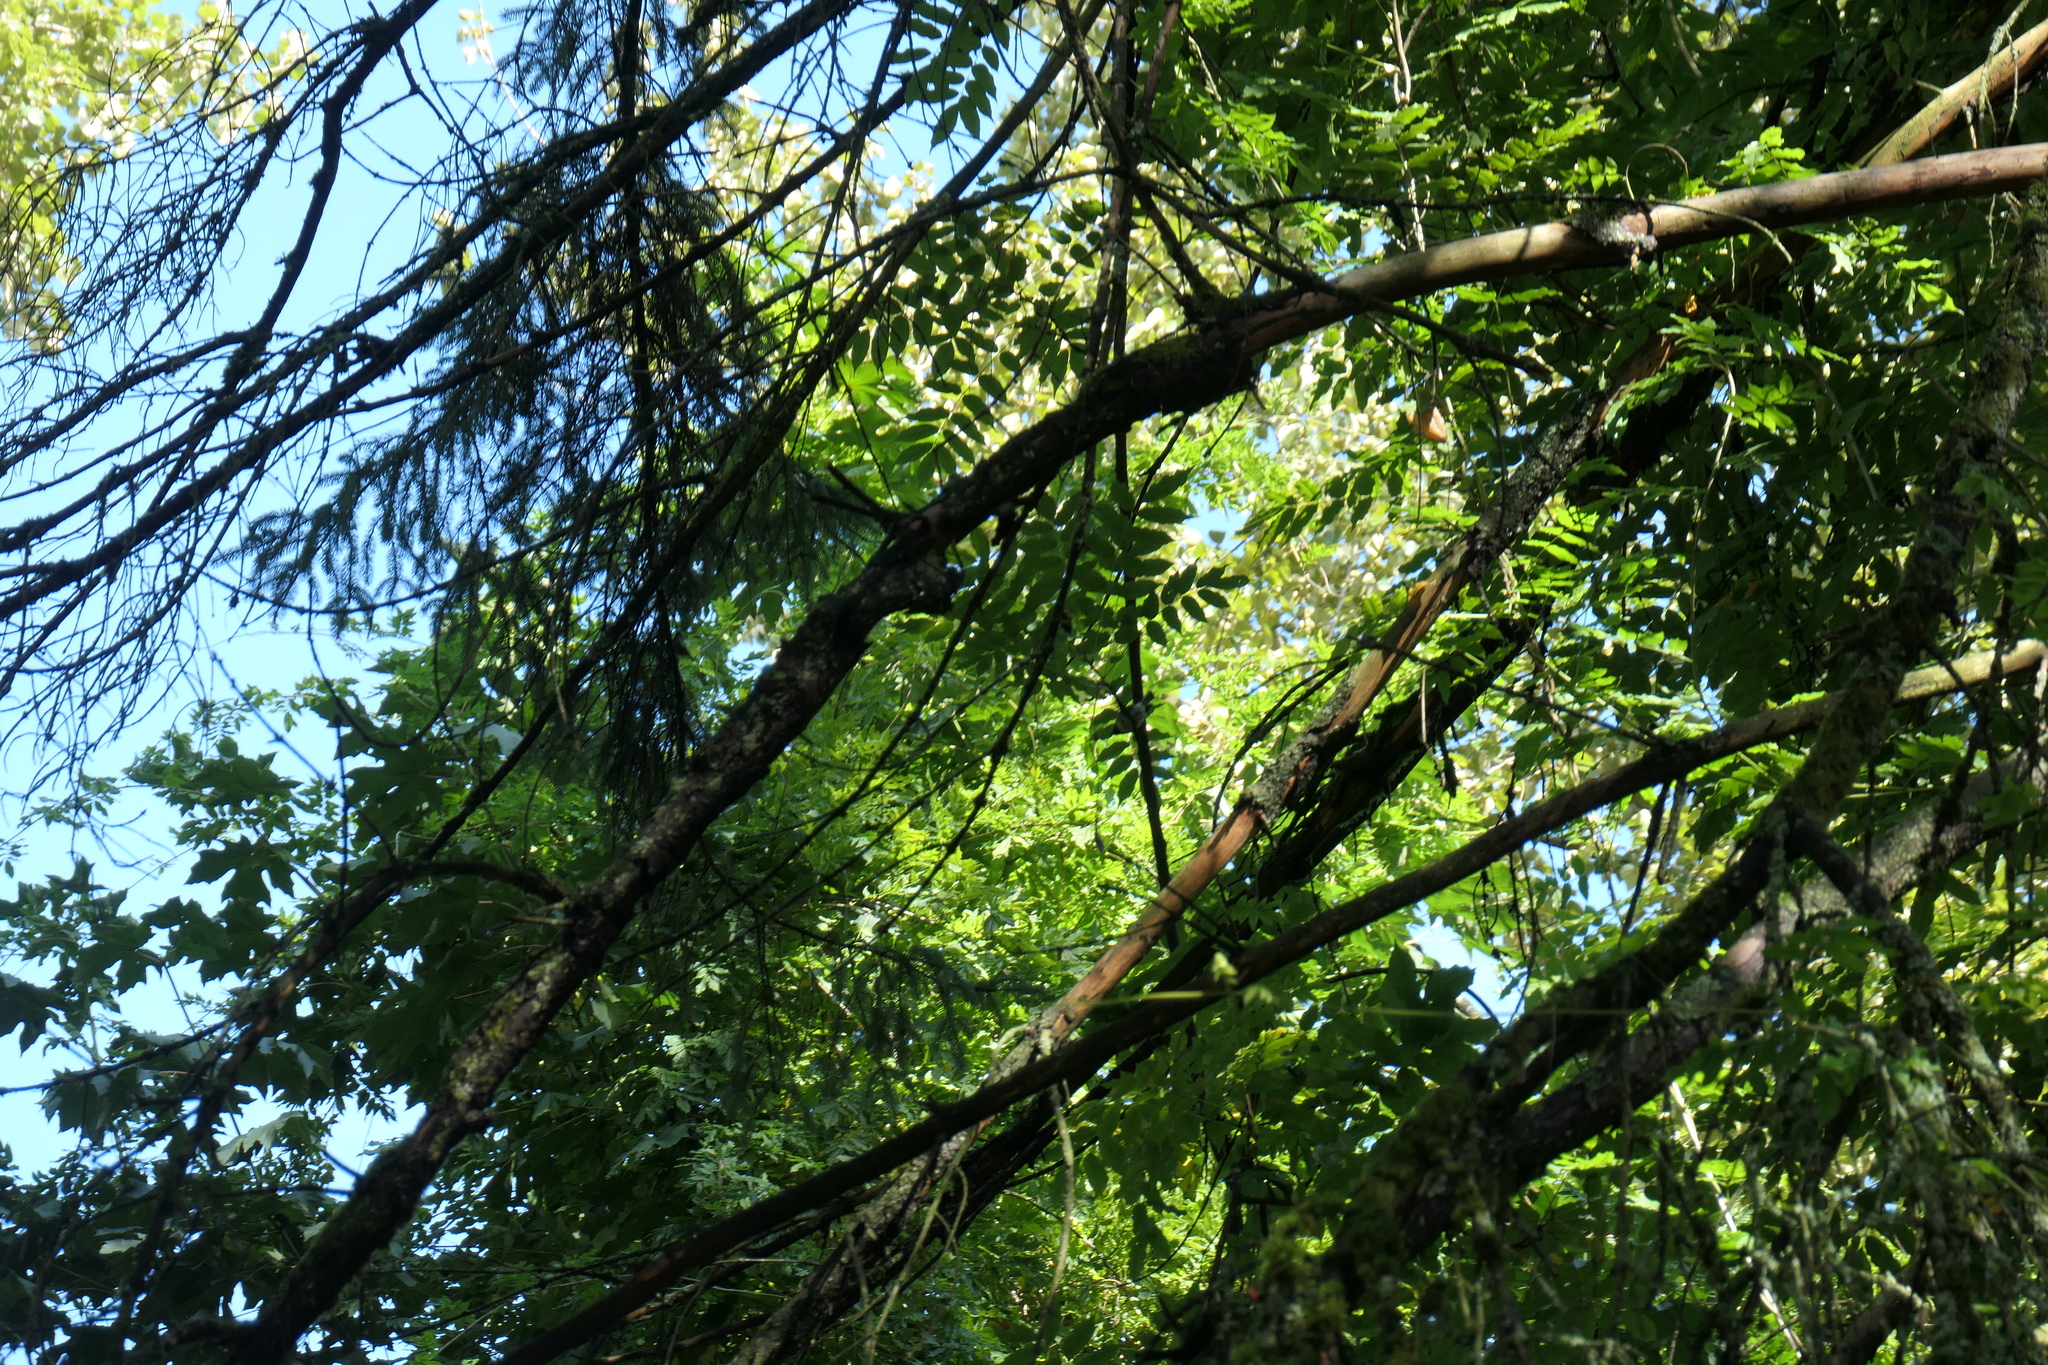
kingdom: Animalia
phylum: Chordata
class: Aves
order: Passeriformes
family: Paridae
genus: Poecile
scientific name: Poecile atricapillus
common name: Black-capped chickadee
